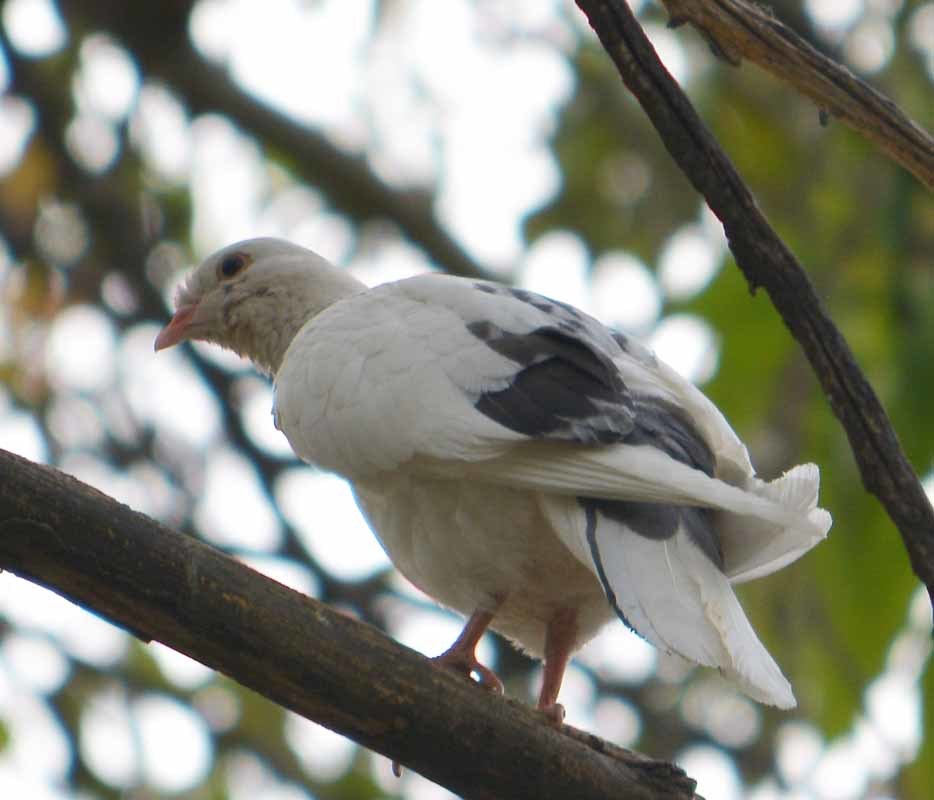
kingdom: Animalia
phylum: Chordata
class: Aves
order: Columbiformes
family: Columbidae
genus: Columba
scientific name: Columba livia
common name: Rock pigeon
